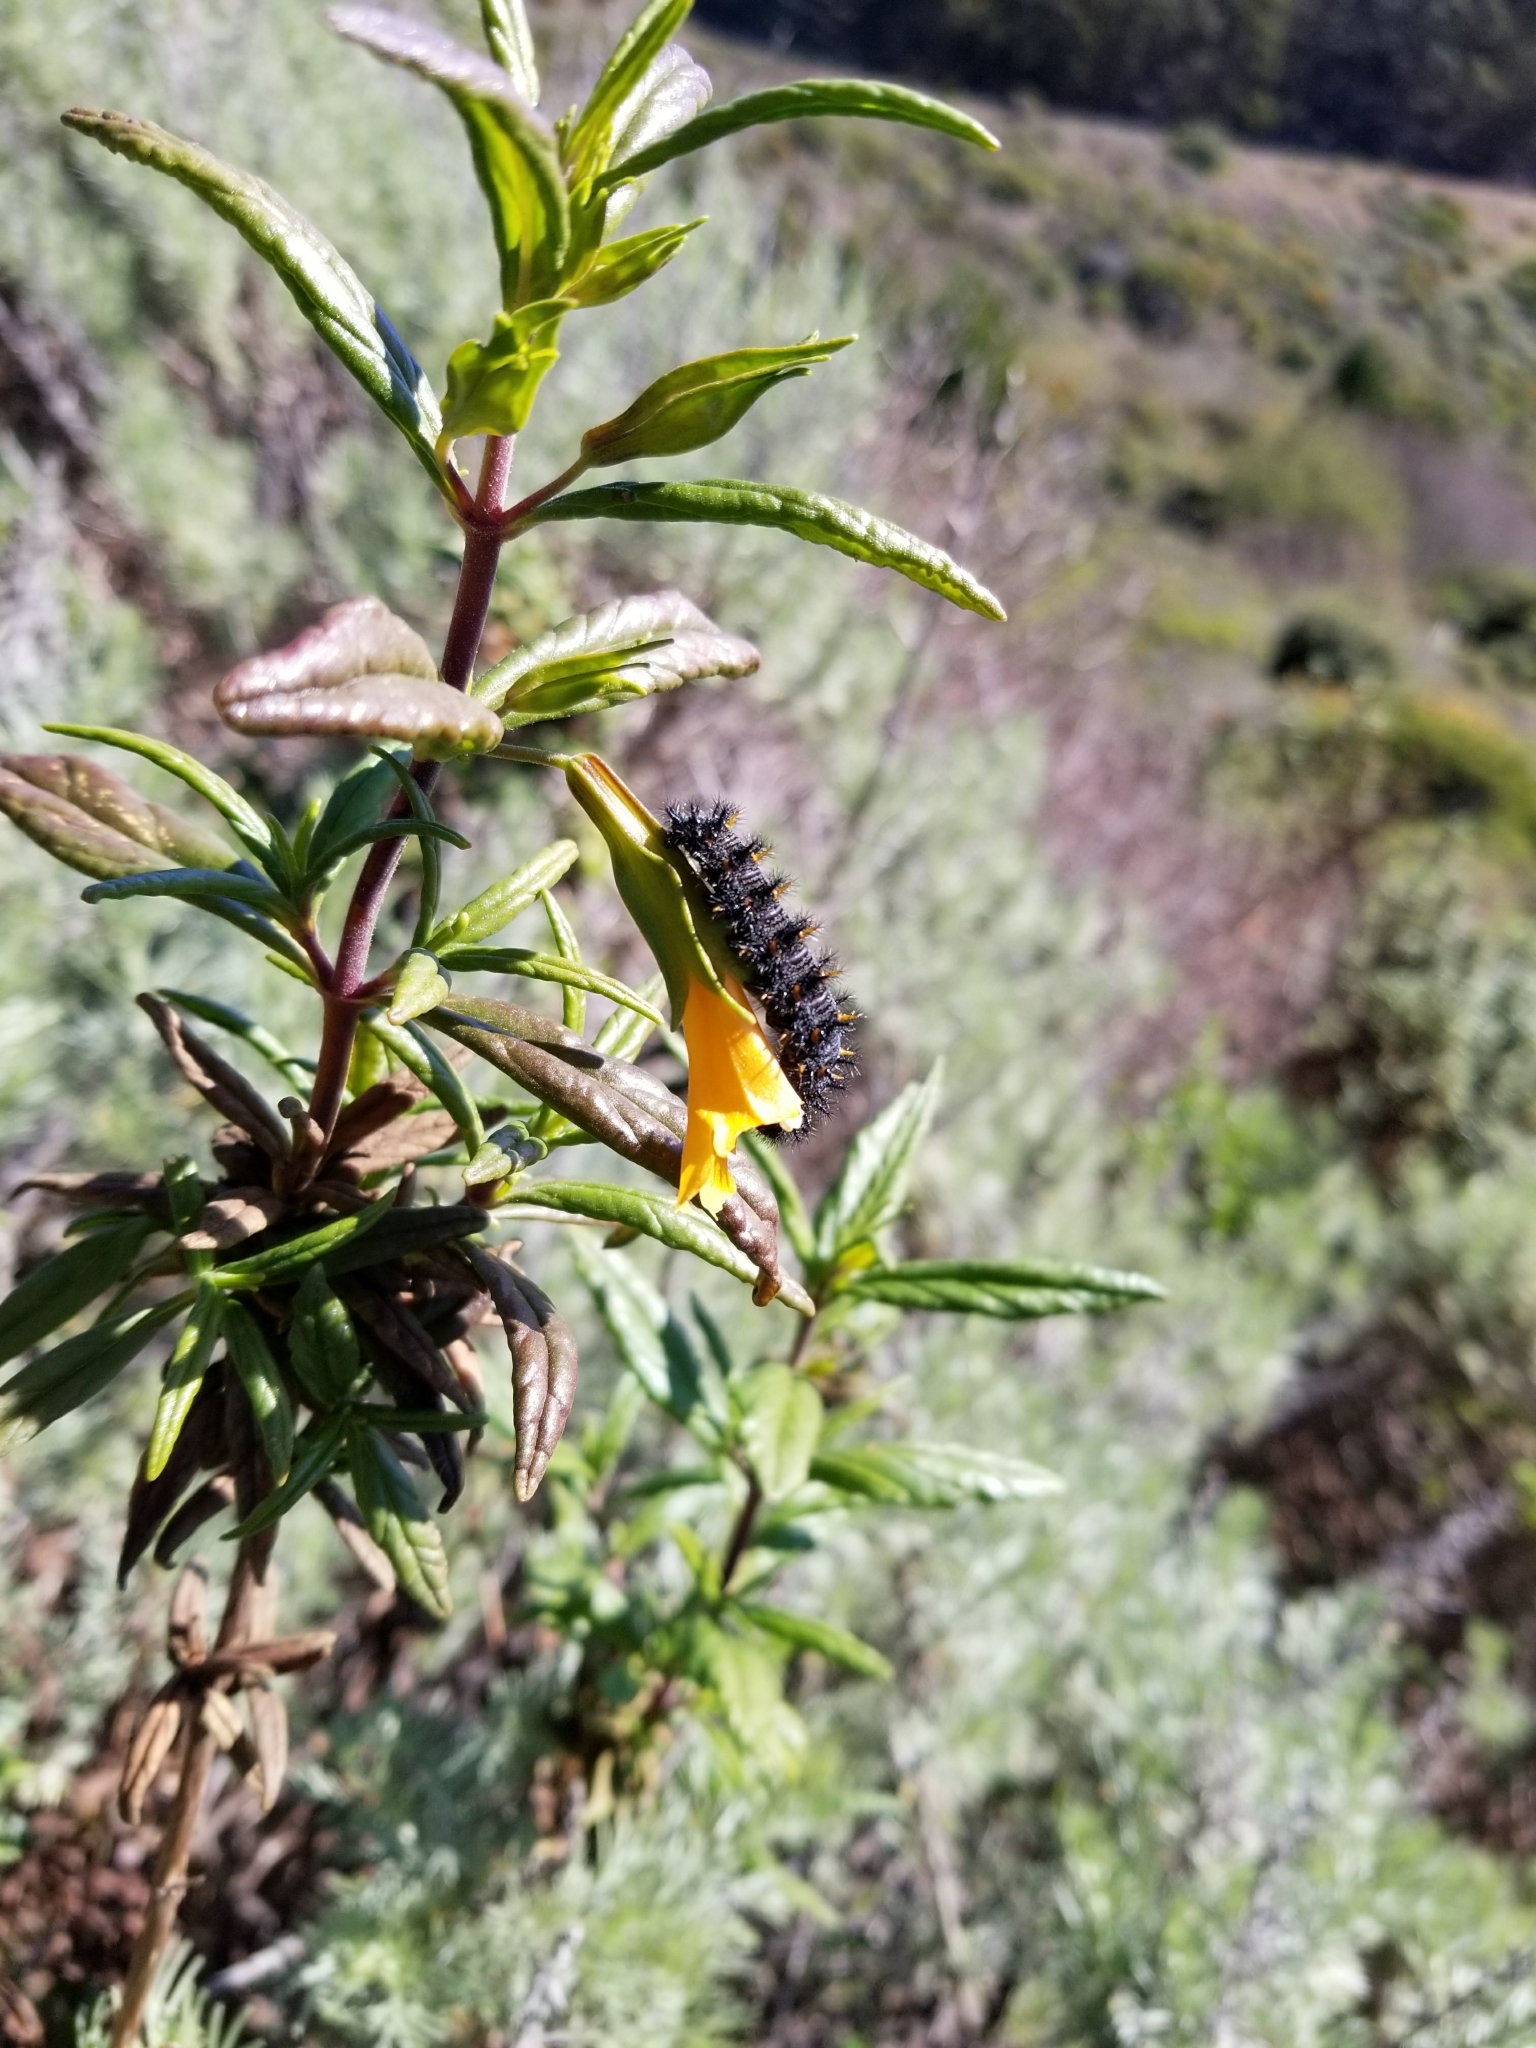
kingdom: Plantae
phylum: Tracheophyta
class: Magnoliopsida
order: Lamiales
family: Phrymaceae
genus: Diplacus
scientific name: Diplacus aurantiacus
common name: Bush monkey-flower
